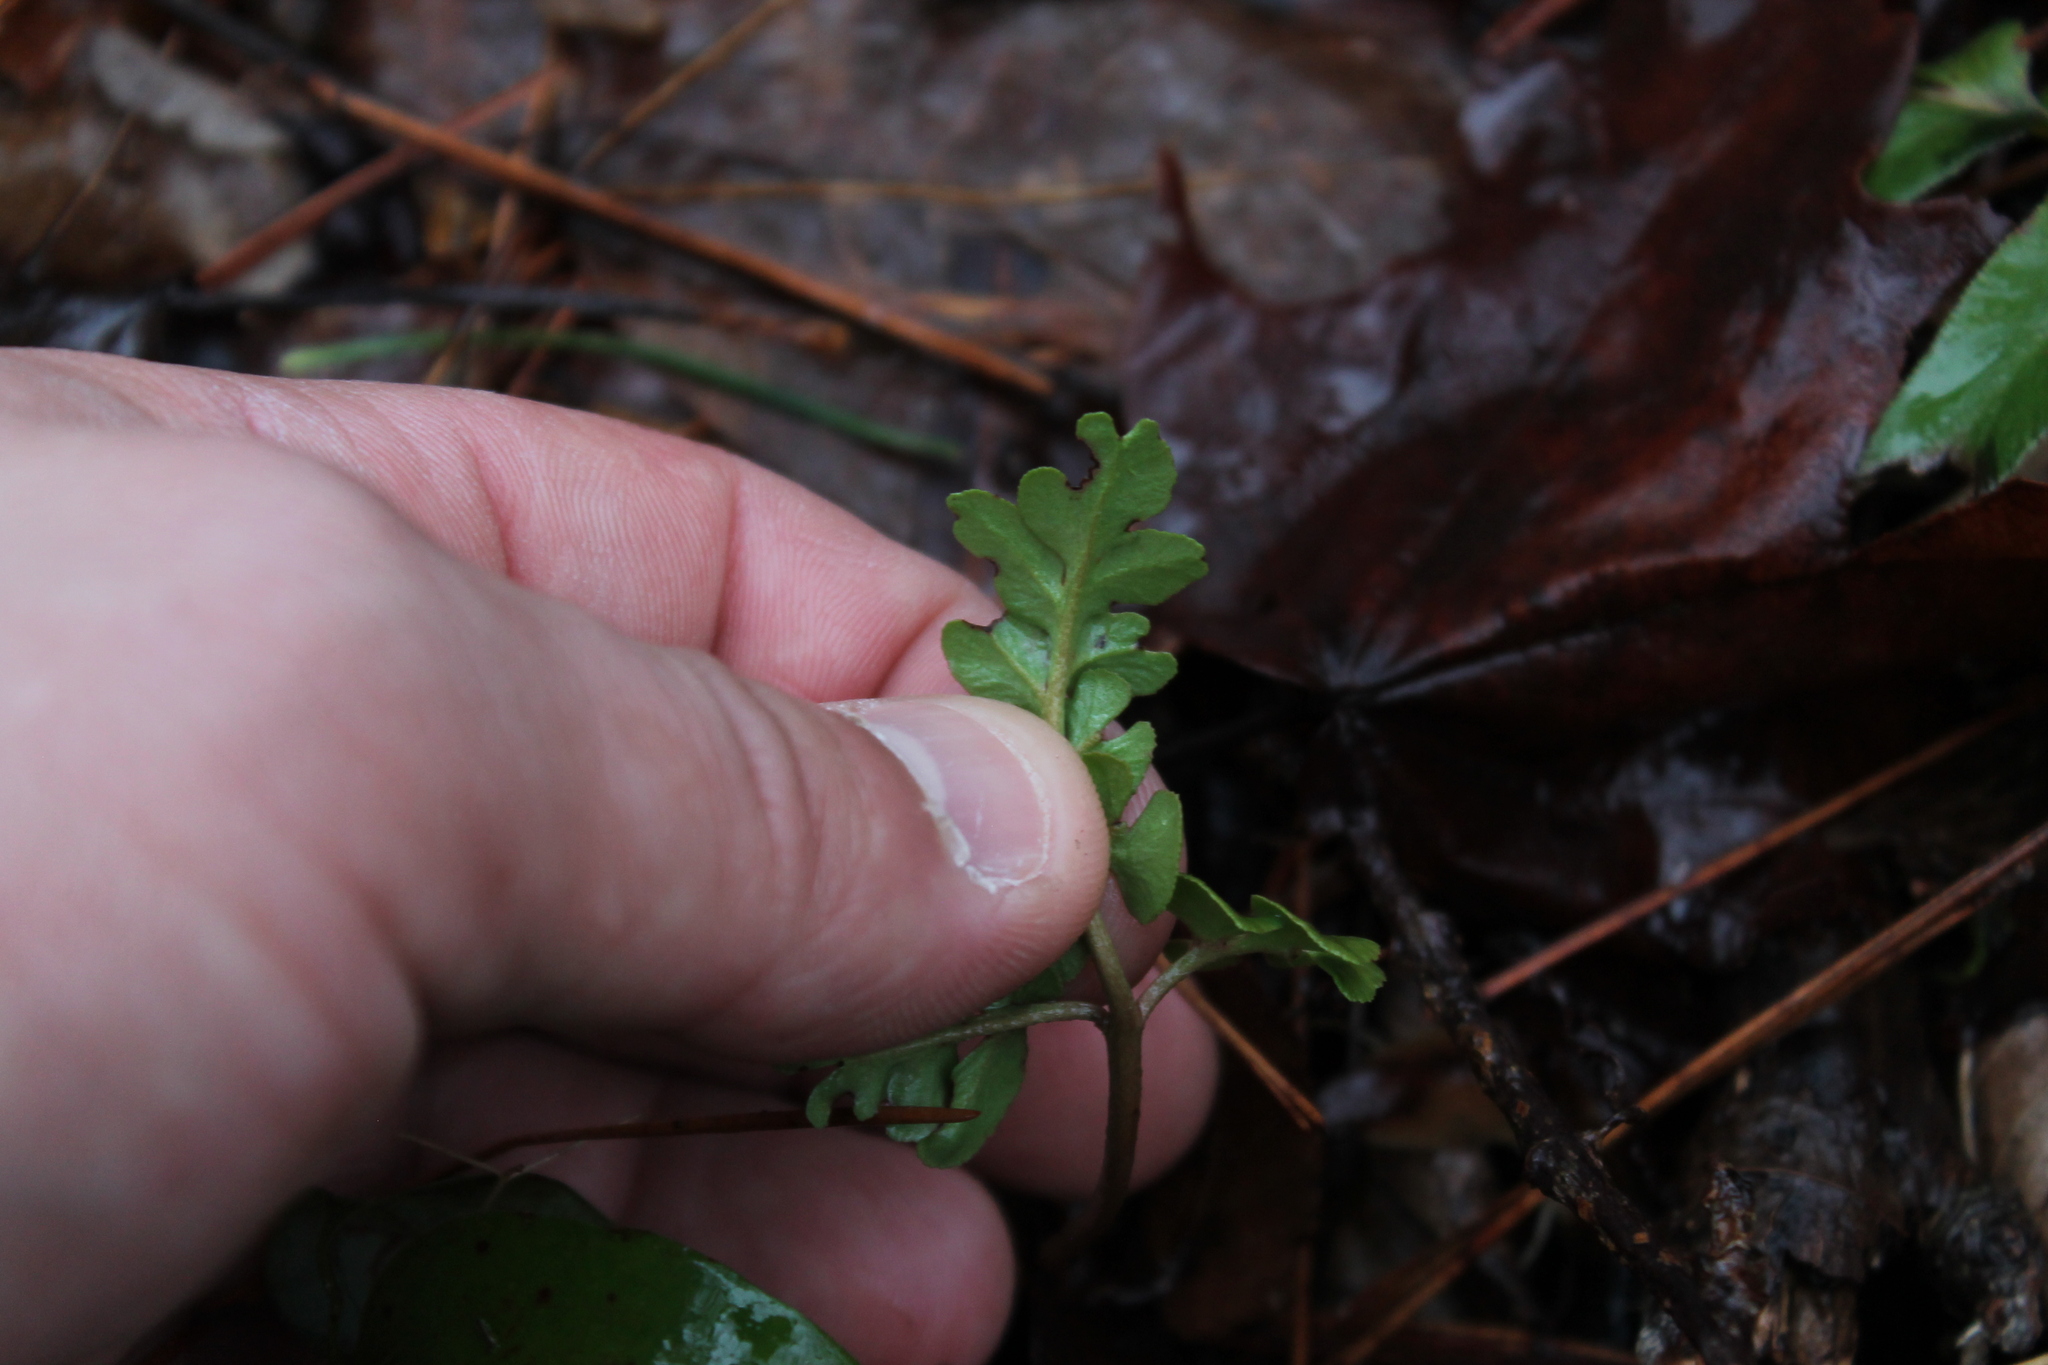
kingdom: Plantae
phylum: Tracheophyta
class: Polypodiopsida
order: Ophioglossales
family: Ophioglossaceae
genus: Sceptridium
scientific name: Sceptridium dissectum
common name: Cut-leaved grapefern
